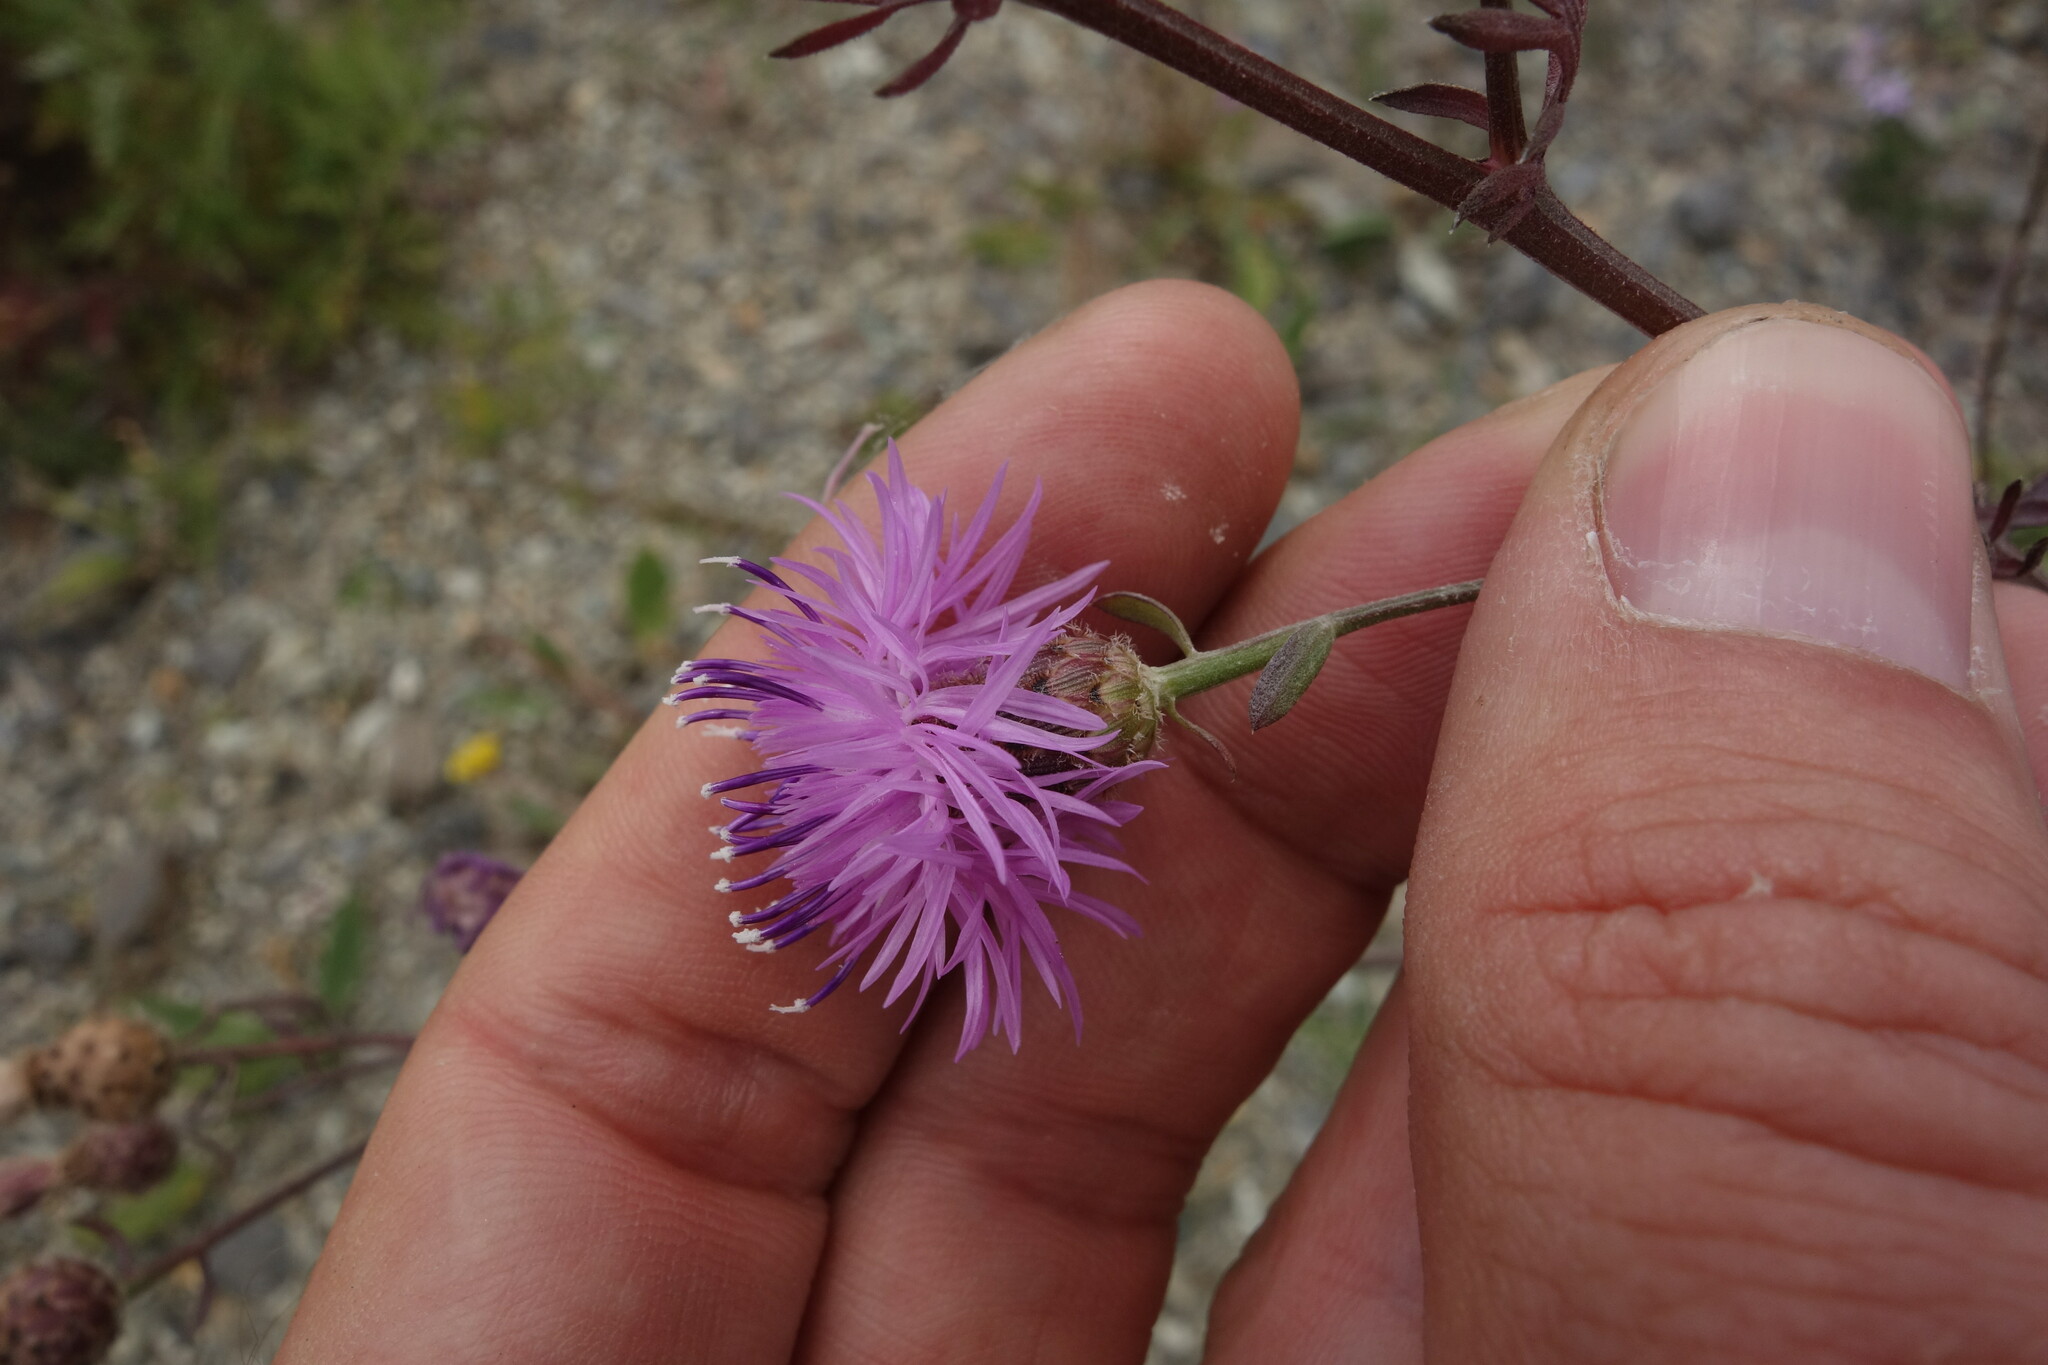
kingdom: Plantae
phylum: Tracheophyta
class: Magnoliopsida
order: Asterales
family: Asteraceae
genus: Centaurea
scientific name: Centaurea stoebe
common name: Spotted knapweed
